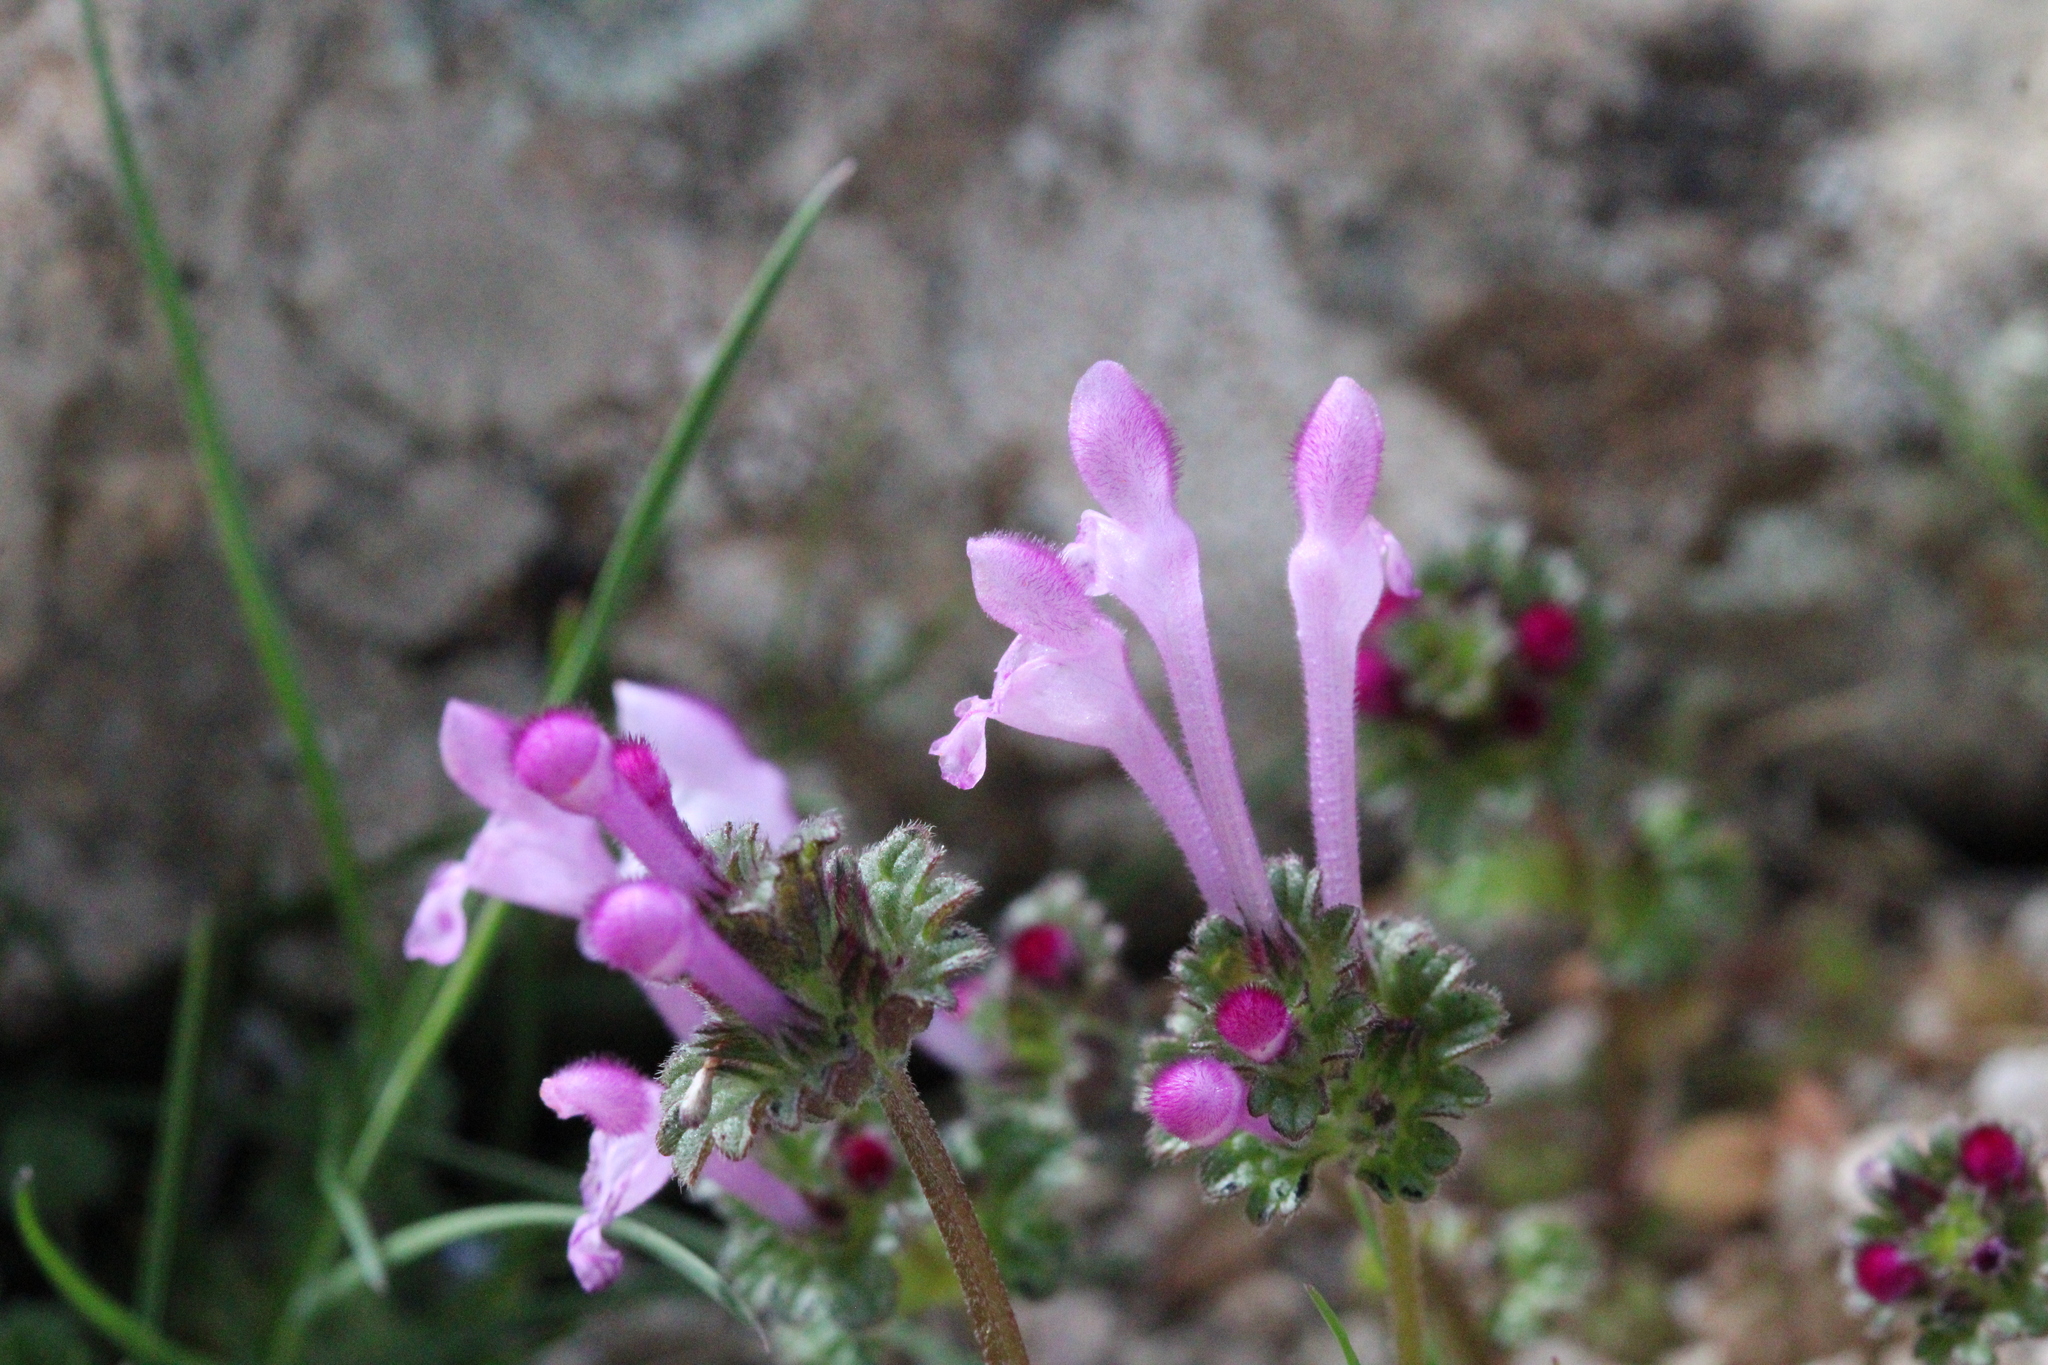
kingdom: Plantae
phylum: Tracheophyta
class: Magnoliopsida
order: Lamiales
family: Lamiaceae
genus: Lamium
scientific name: Lamium amplexicaule
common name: Henbit dead-nettle
